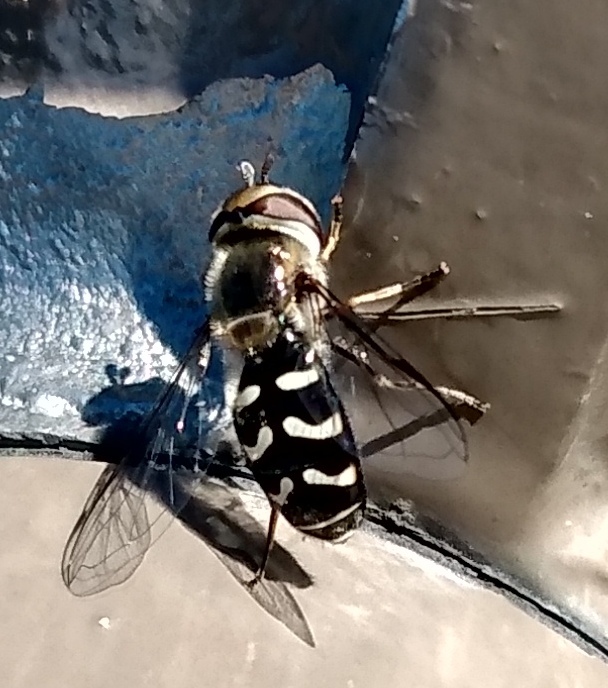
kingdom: Animalia
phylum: Arthropoda
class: Insecta
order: Diptera
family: Syrphidae
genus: Scaeva
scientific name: Scaeva affinis
